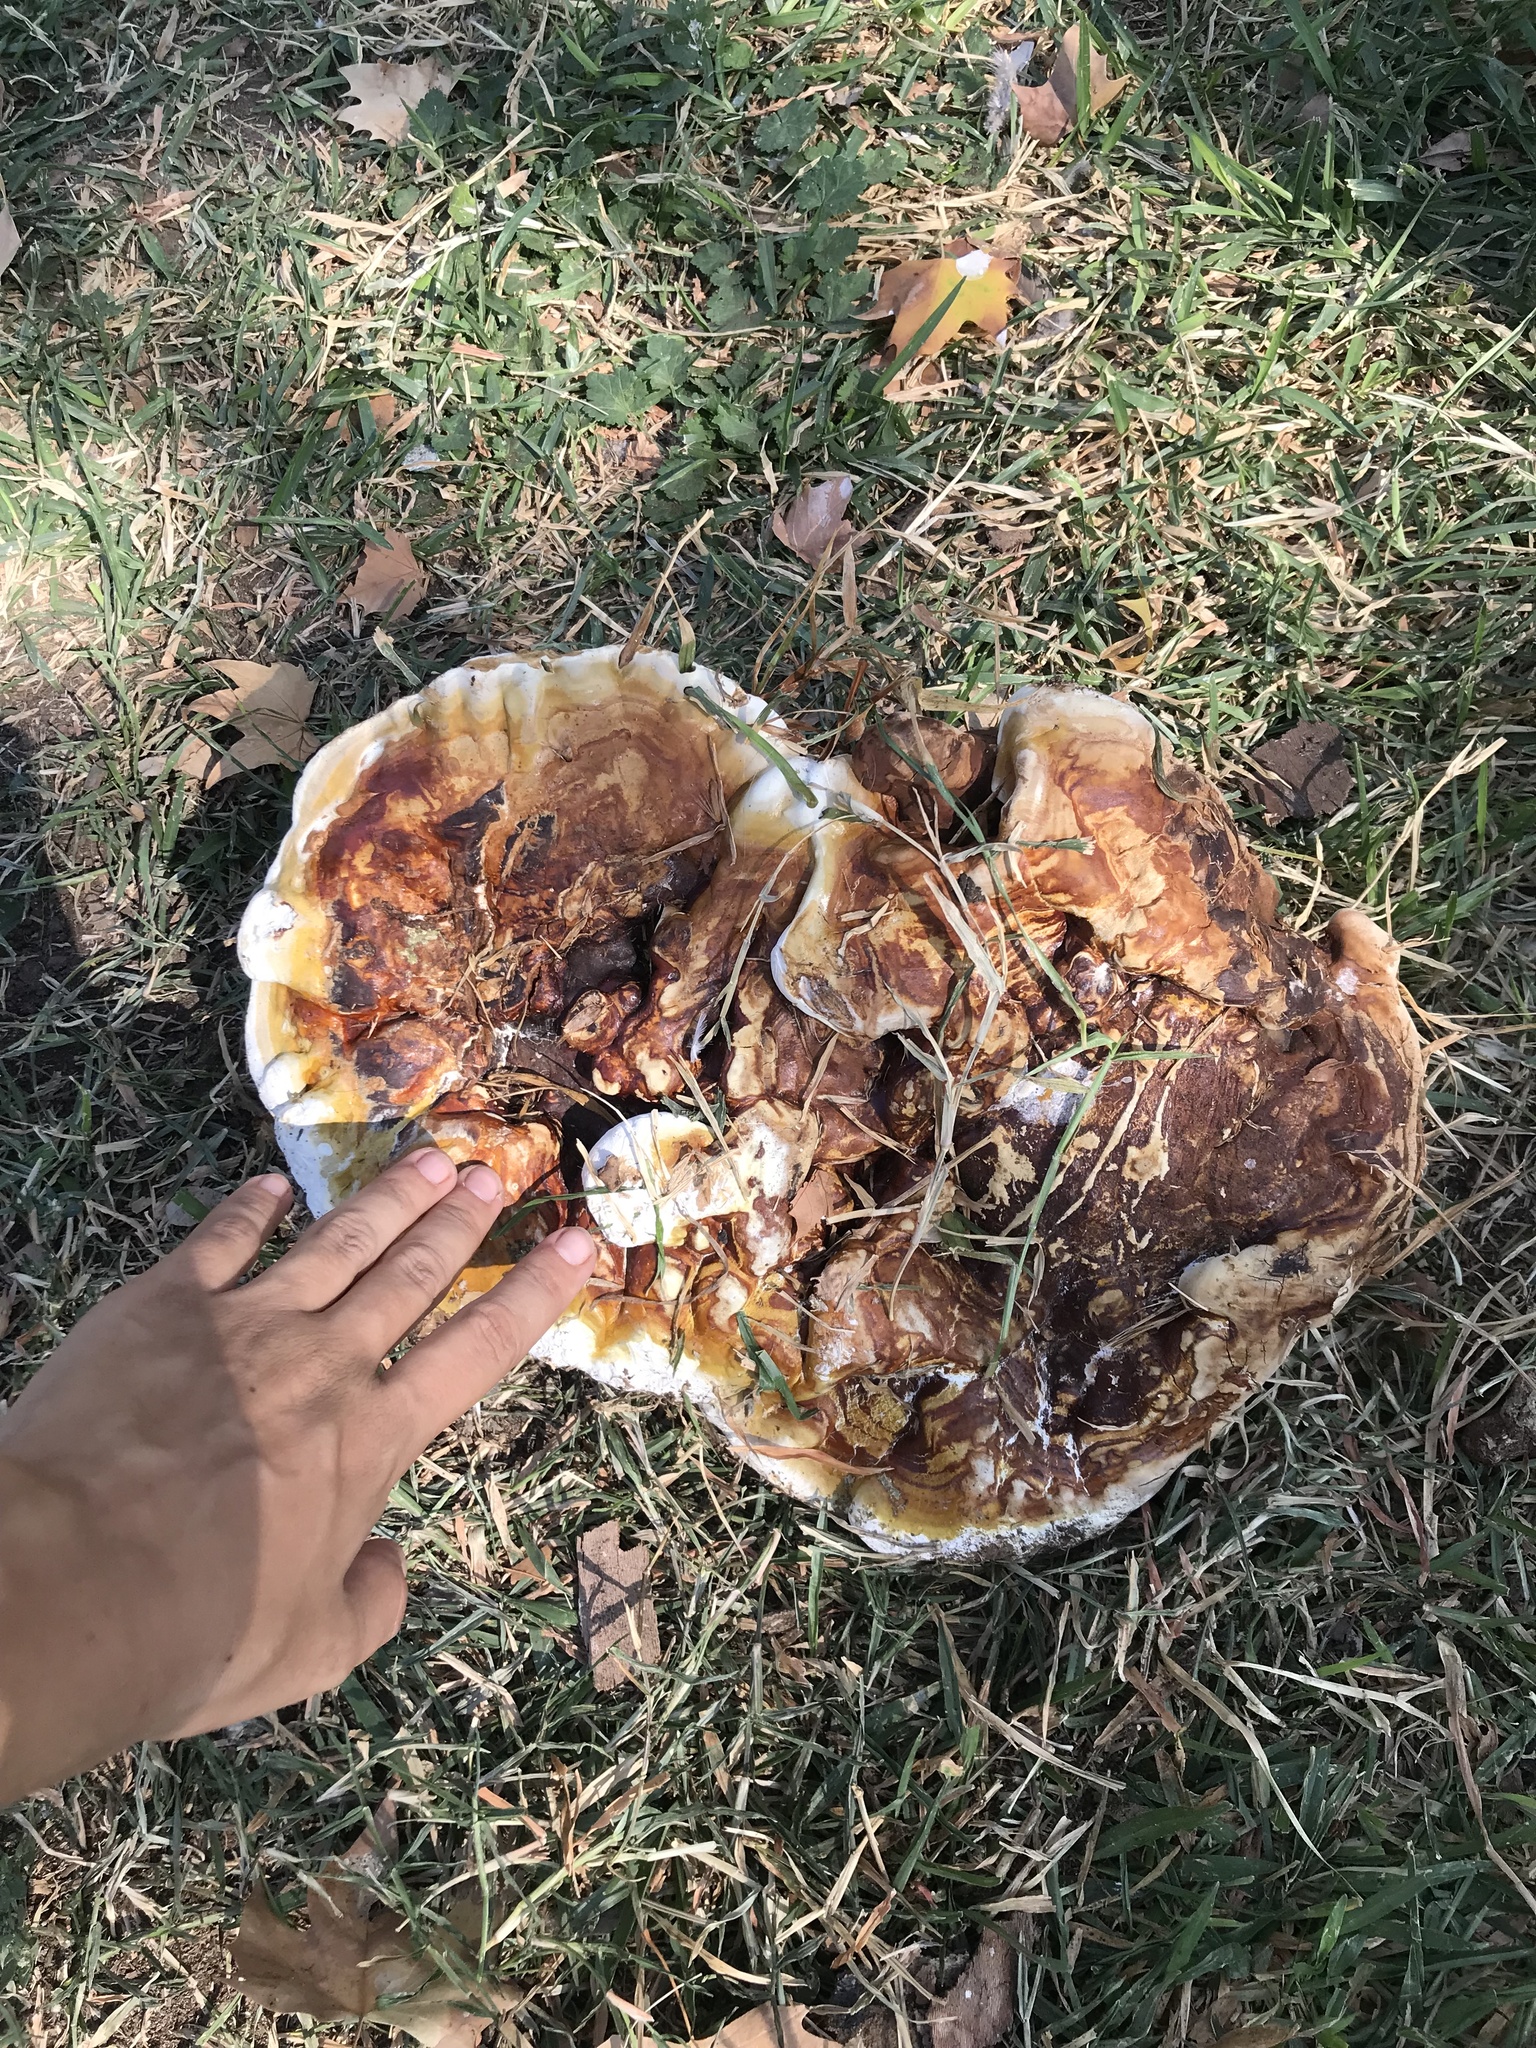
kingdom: Fungi
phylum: Basidiomycota
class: Agaricomycetes
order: Polyporales
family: Polyporaceae
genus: Ganoderma
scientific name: Ganoderma resinaceum
